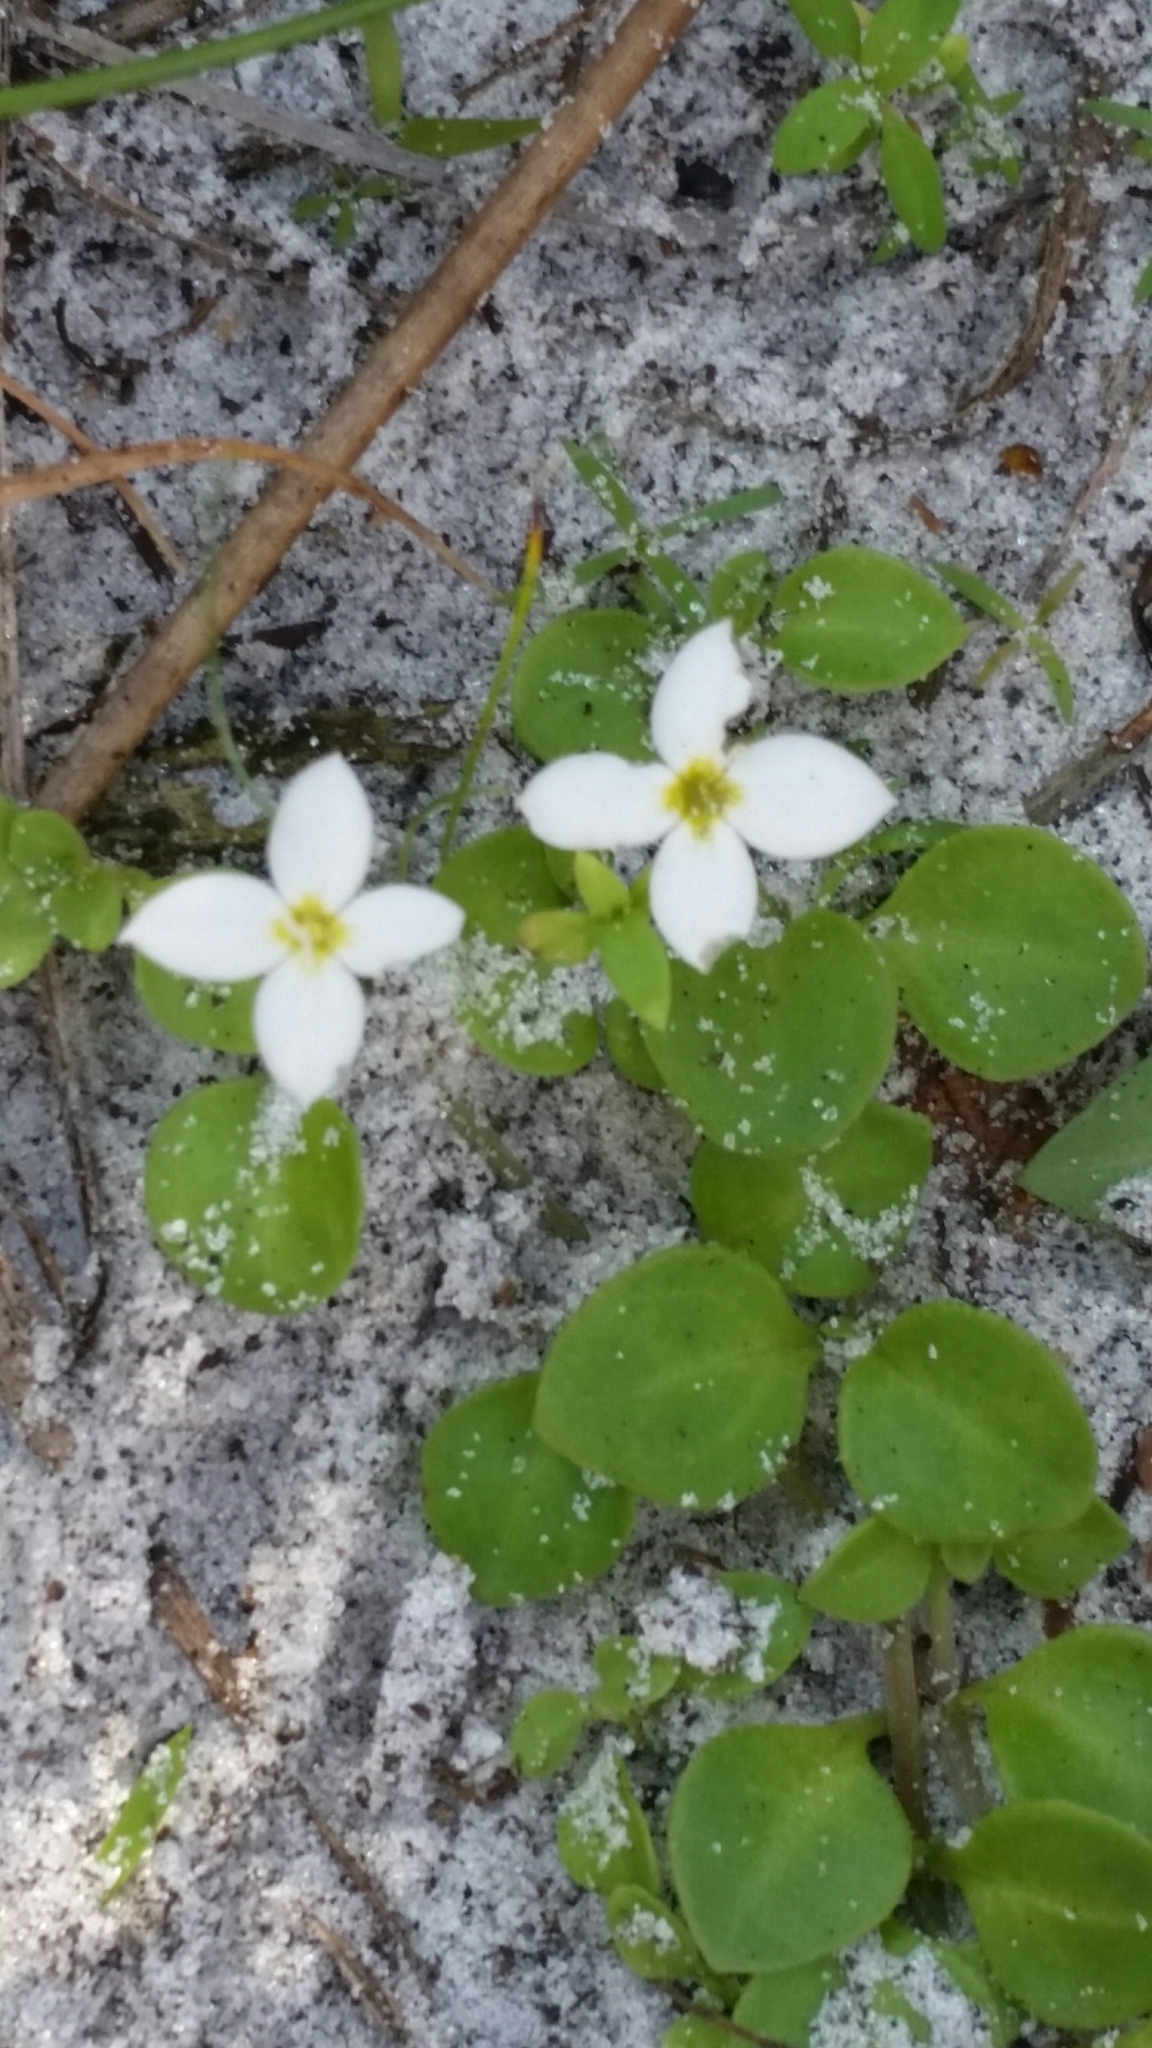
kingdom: Plantae
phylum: Tracheophyta
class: Magnoliopsida
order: Gentianales
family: Rubiaceae
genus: Houstonia
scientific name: Houstonia procumbens
